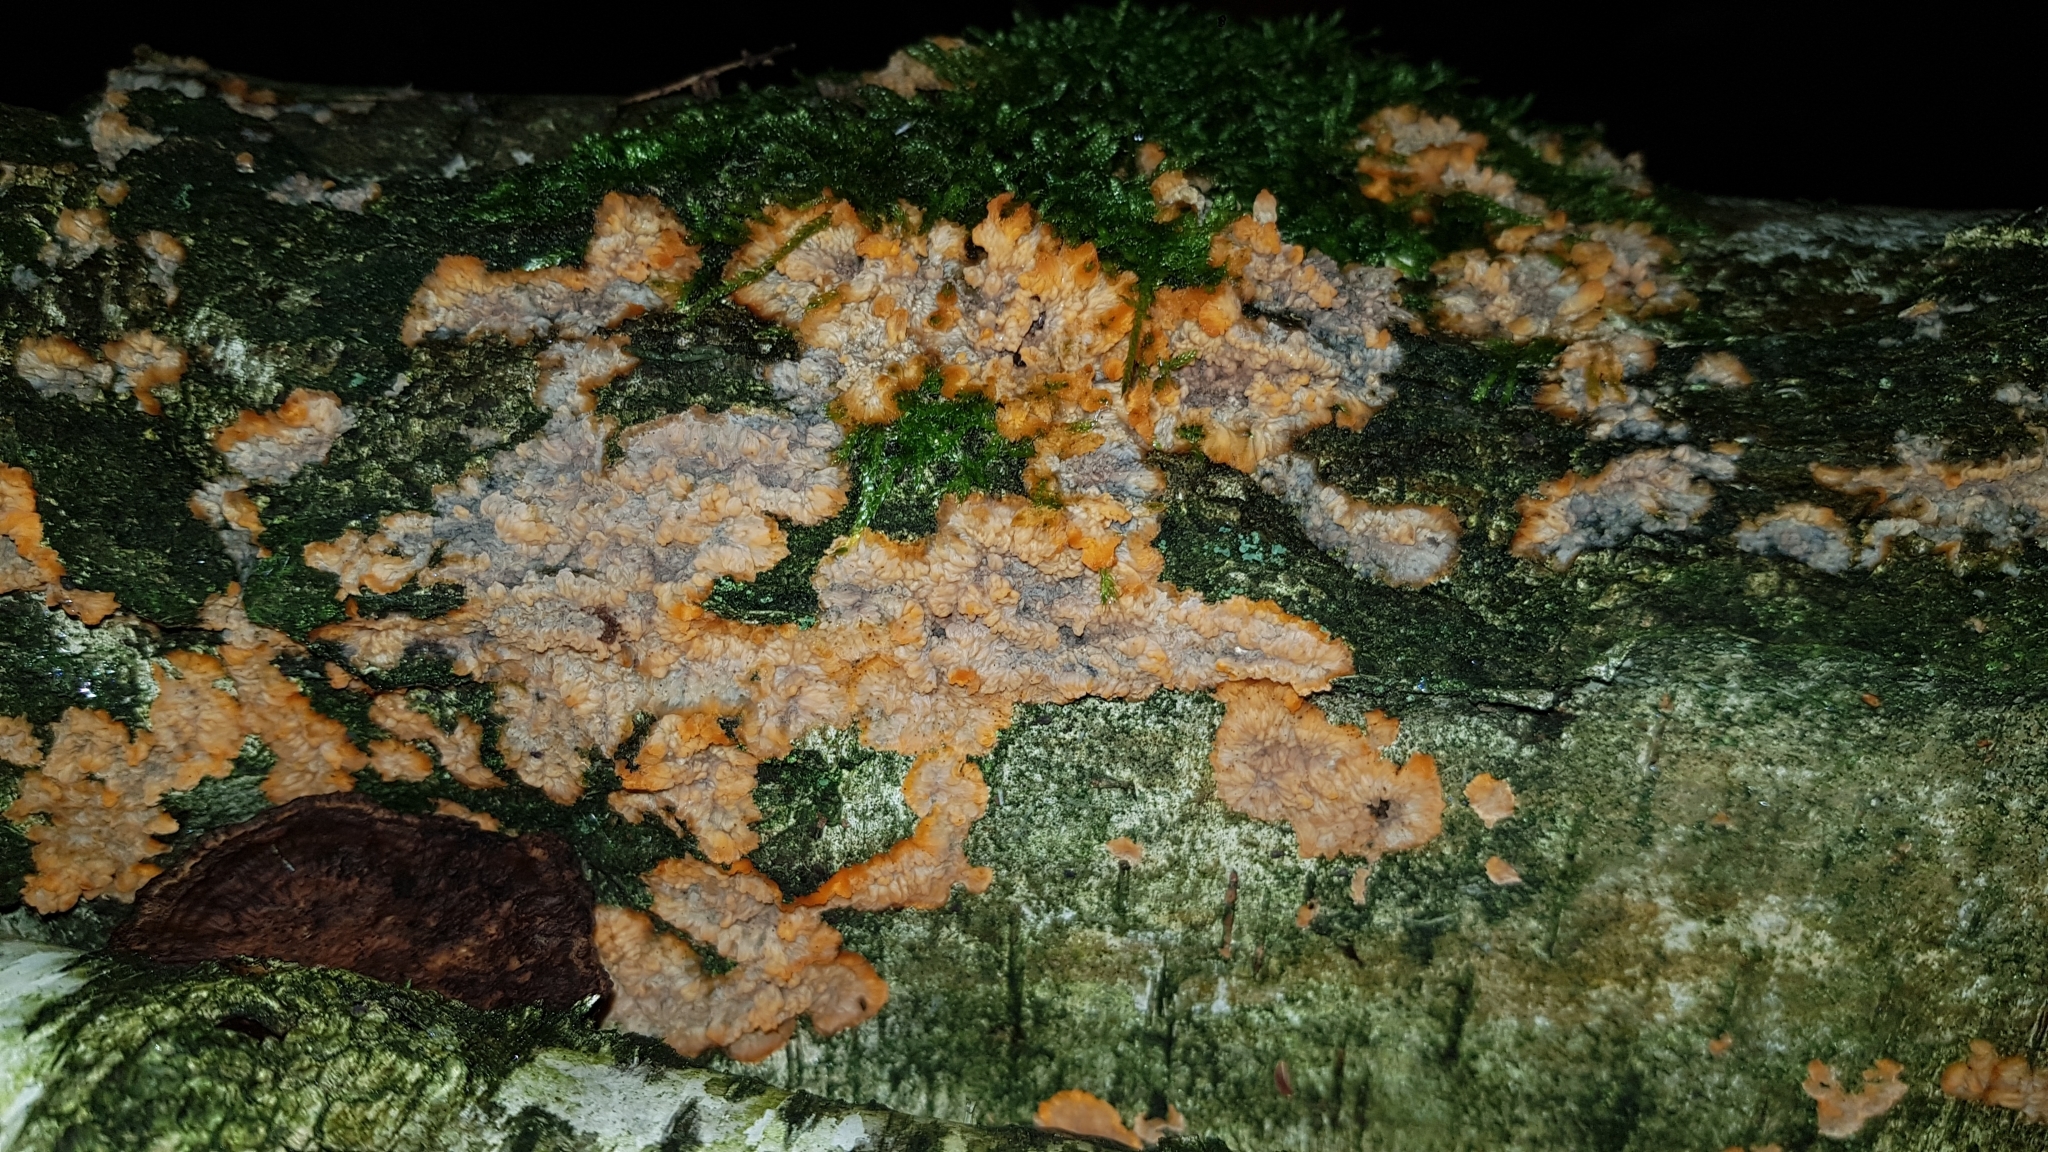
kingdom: Fungi
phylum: Basidiomycota
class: Agaricomycetes
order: Polyporales
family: Meruliaceae
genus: Phlebia
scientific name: Phlebia radiata
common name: Wrinkled crust
